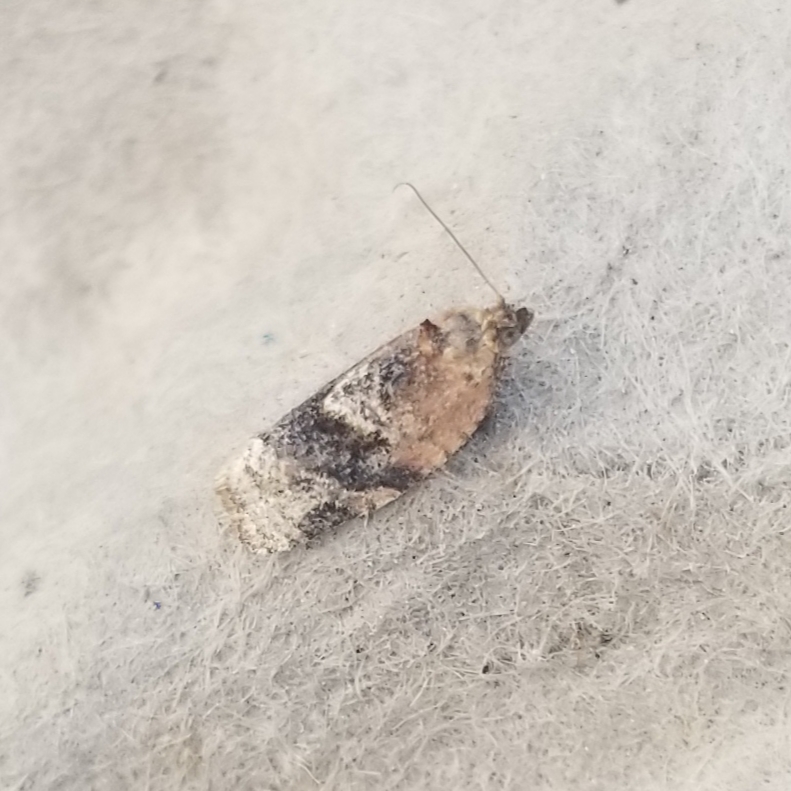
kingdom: Animalia
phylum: Arthropoda
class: Insecta
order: Lepidoptera
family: Tortricidae
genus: Argyrotaenia
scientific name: Argyrotaenia velutinana
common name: Red-banded leafroller moth
